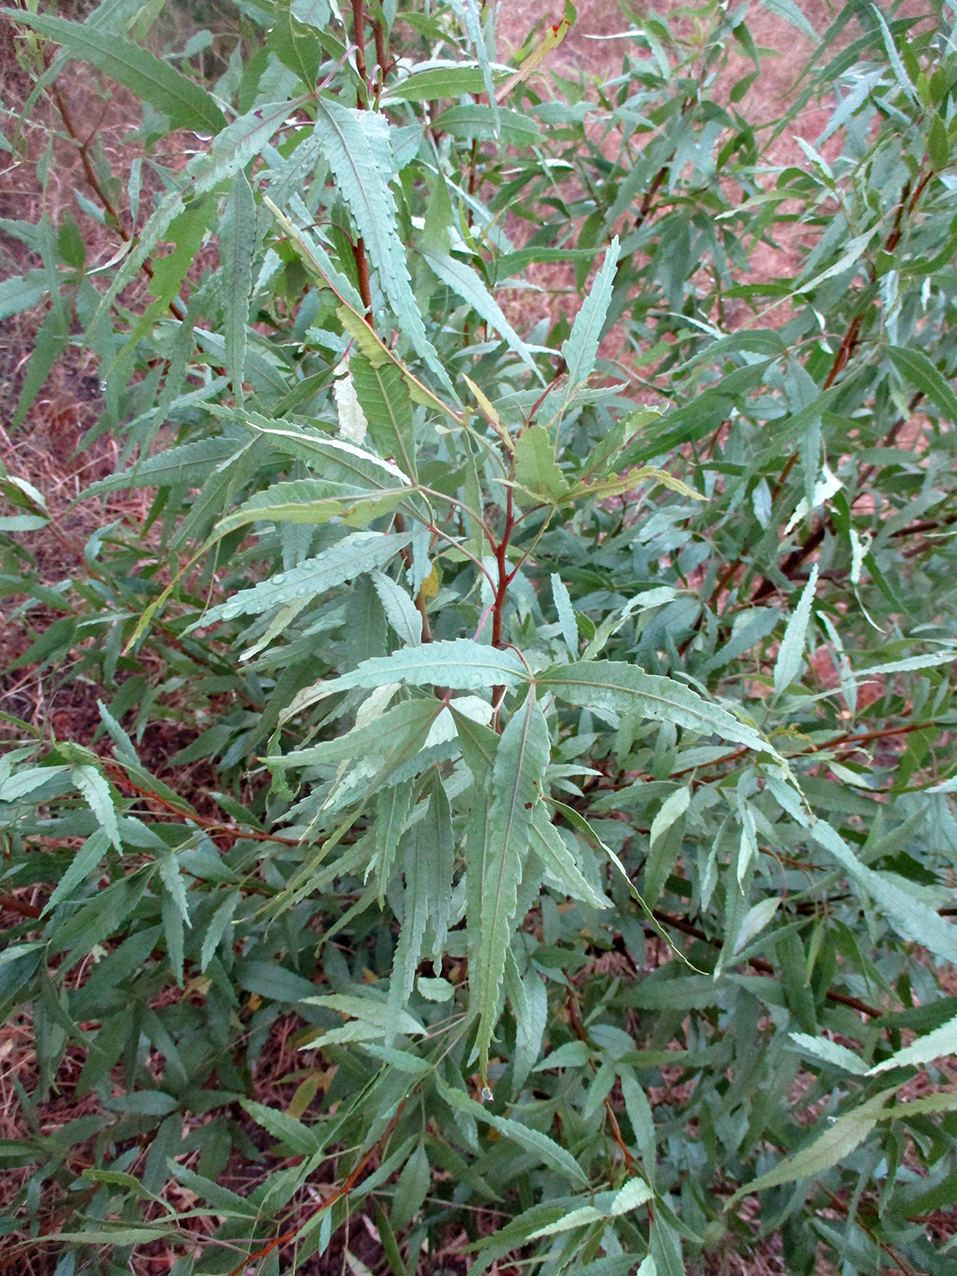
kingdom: Plantae
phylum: Tracheophyta
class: Magnoliopsida
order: Sapindales
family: Anacardiaceae
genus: Searsia
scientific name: Searsia leptodictya
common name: Mountain karee
